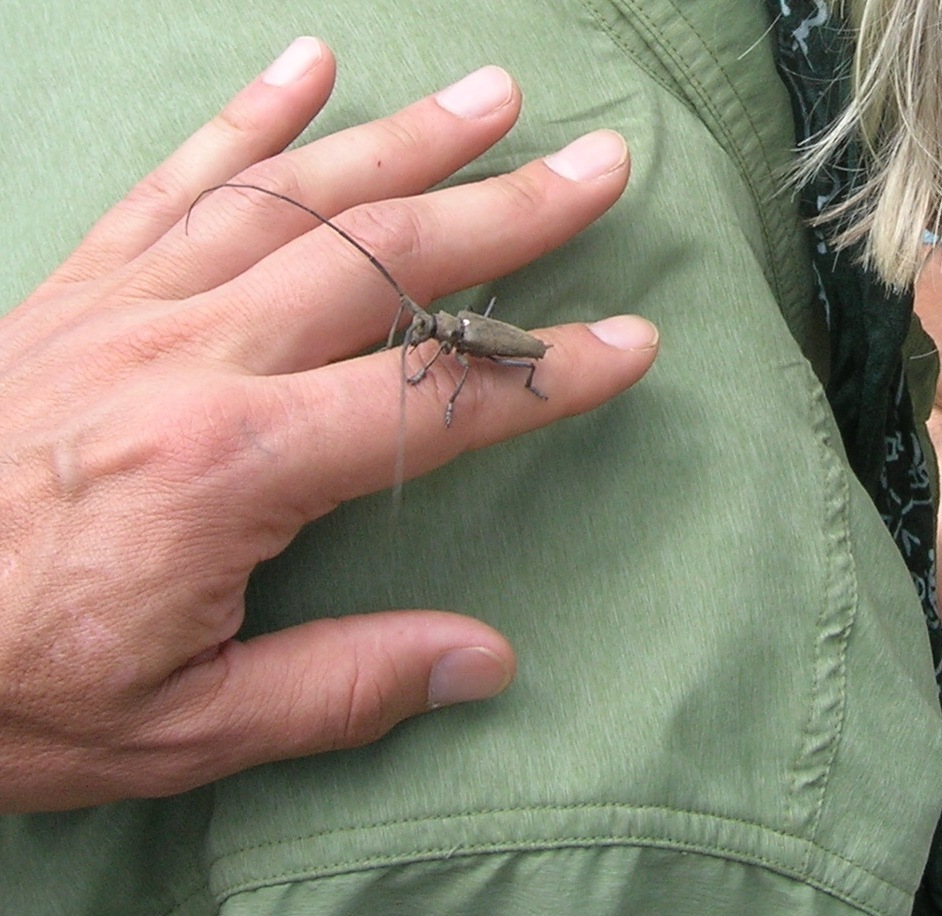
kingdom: Animalia
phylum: Arthropoda
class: Insecta
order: Coleoptera
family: Cerambycidae
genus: Monochamus
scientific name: Monochamus scutellatus
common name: White-spotted sawyer beetle
